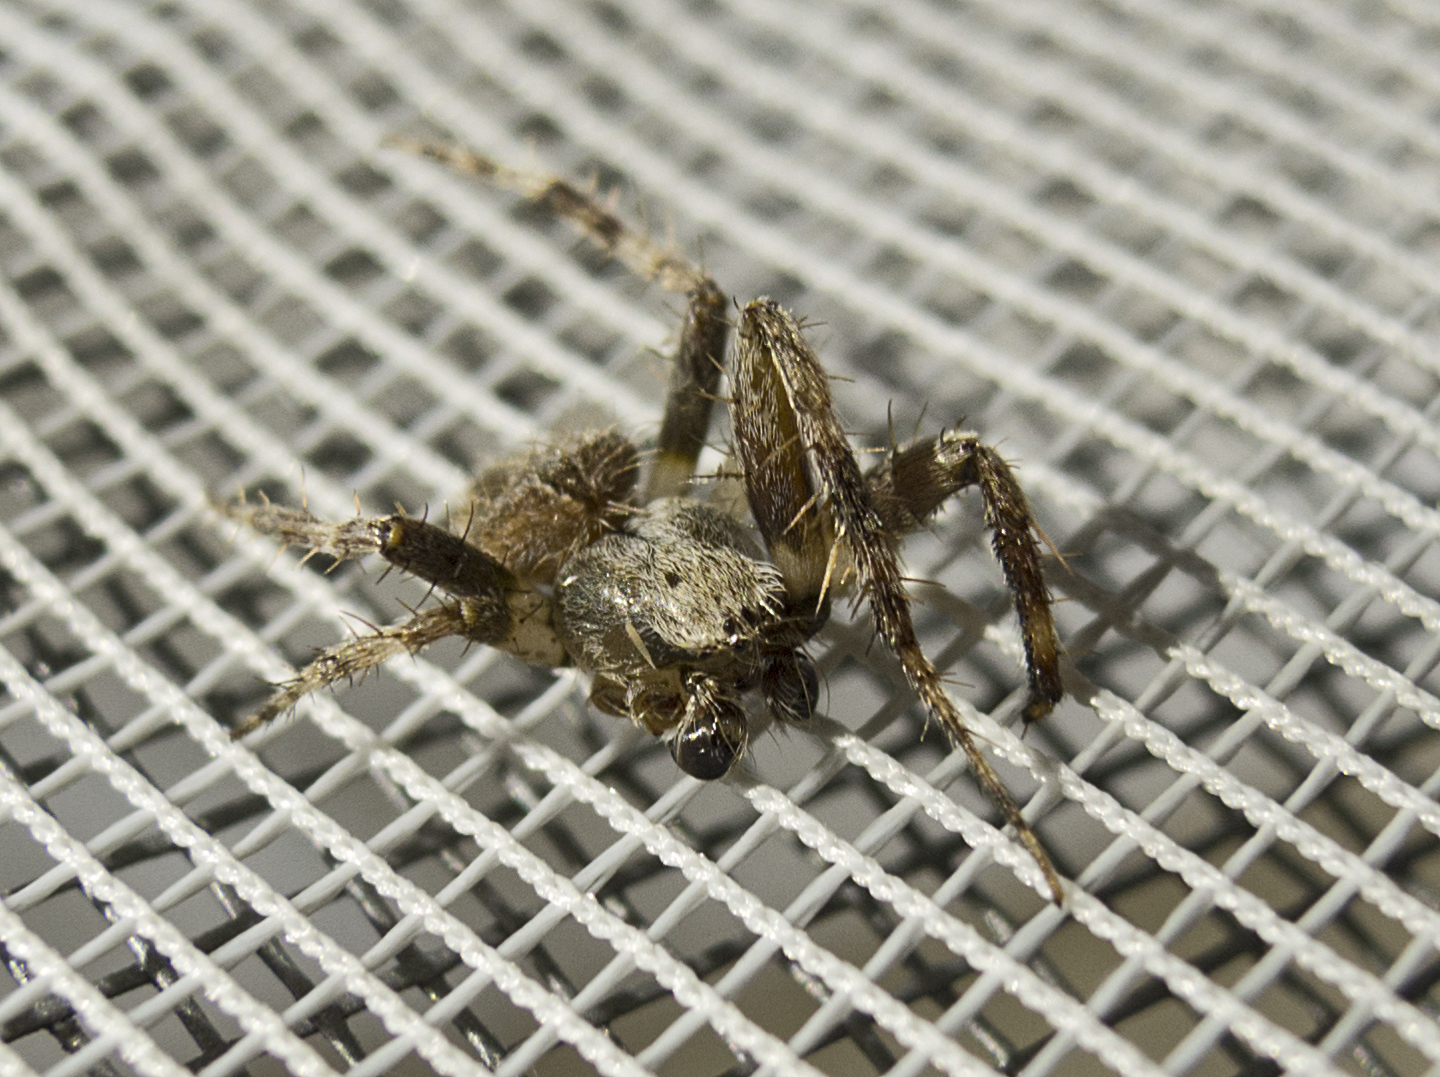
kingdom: Animalia
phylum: Arthropoda
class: Arachnida
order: Araneae
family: Araneidae
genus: Neoscona
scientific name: Neoscona subfusca
